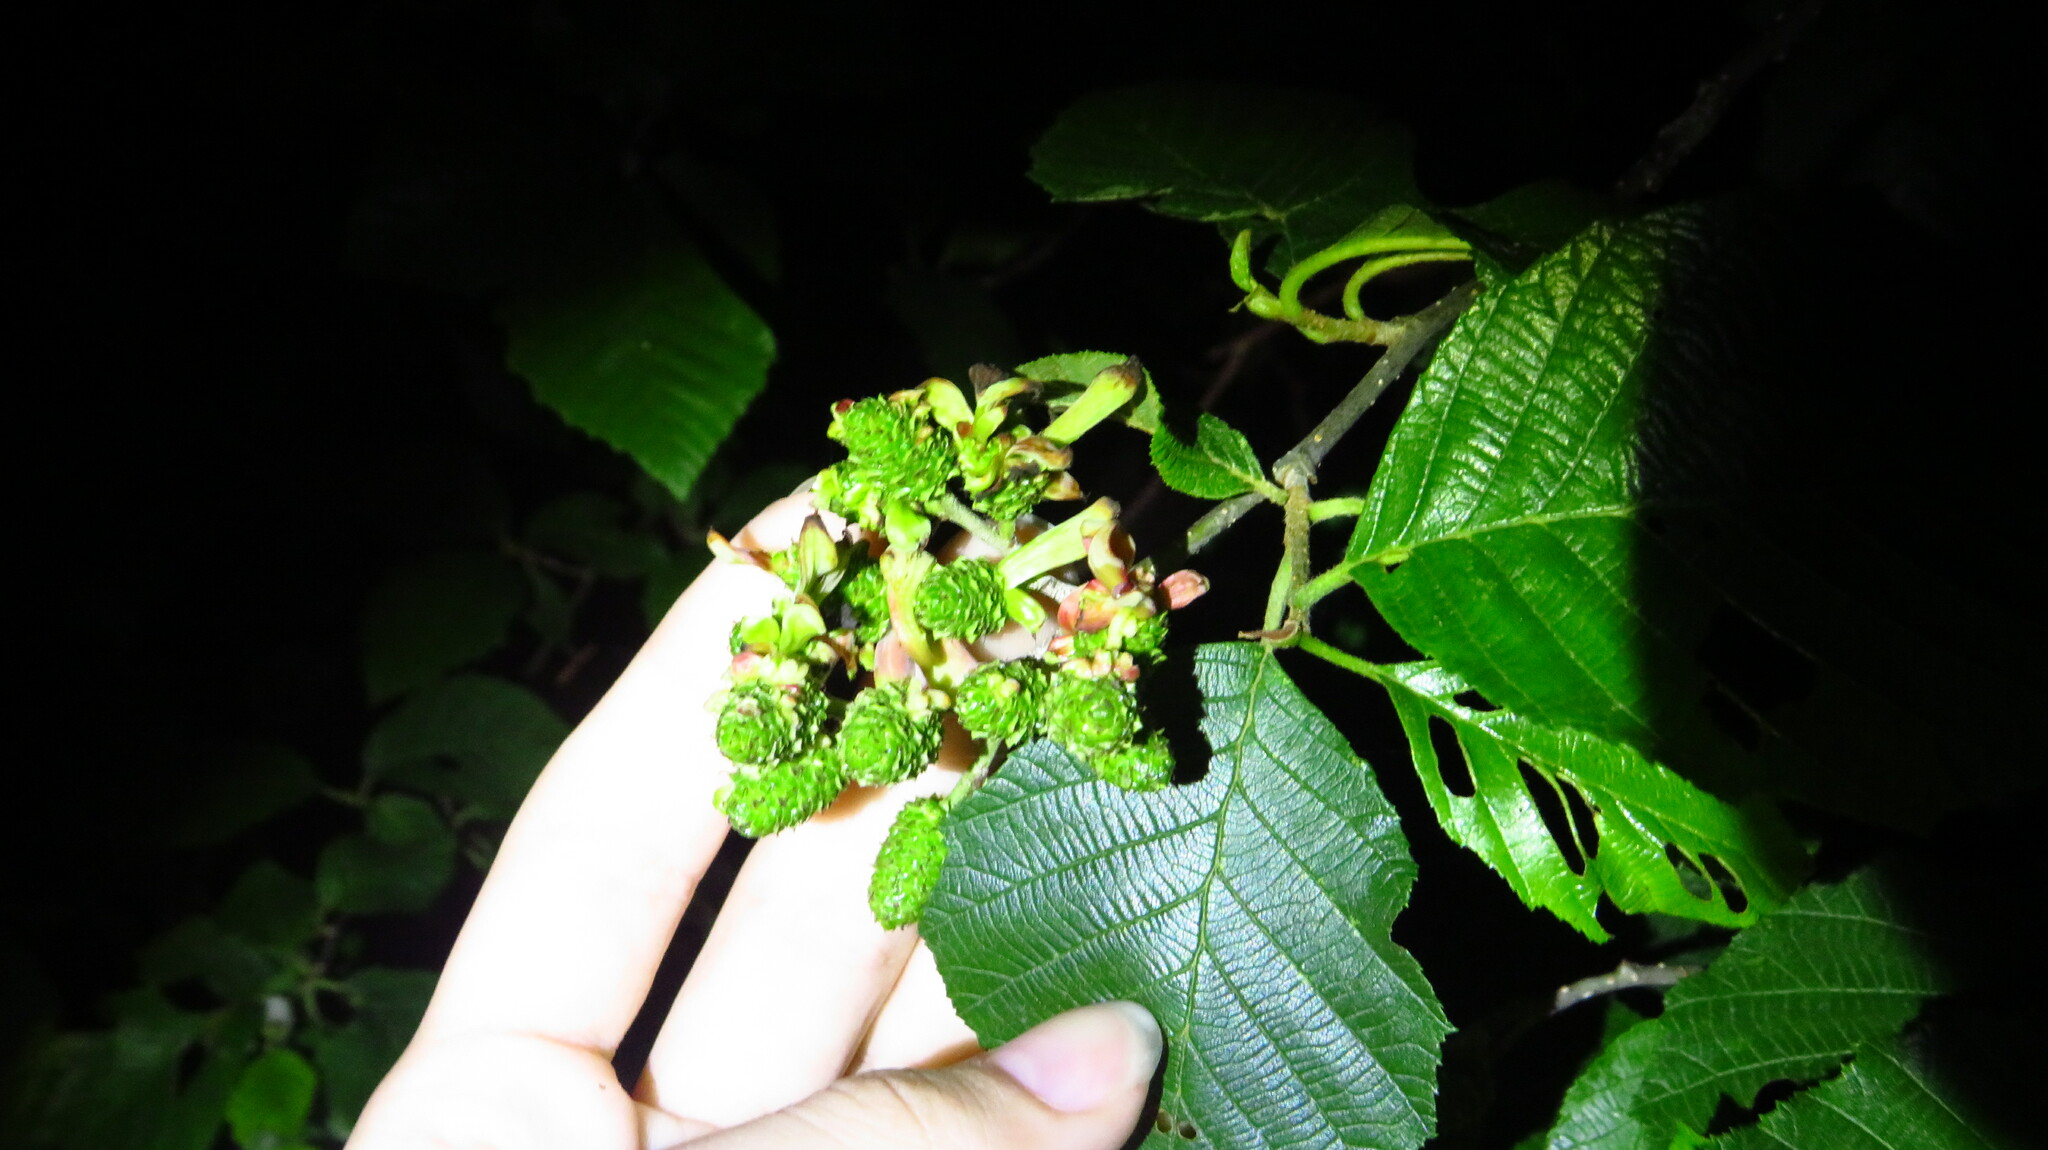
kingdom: Fungi
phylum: Ascomycota
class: Taphrinomycetes
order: Taphrinales
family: Taphrinaceae
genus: Taphrina
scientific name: Taphrina robinsoniana
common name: Eastern american alder tongue gall fungus
